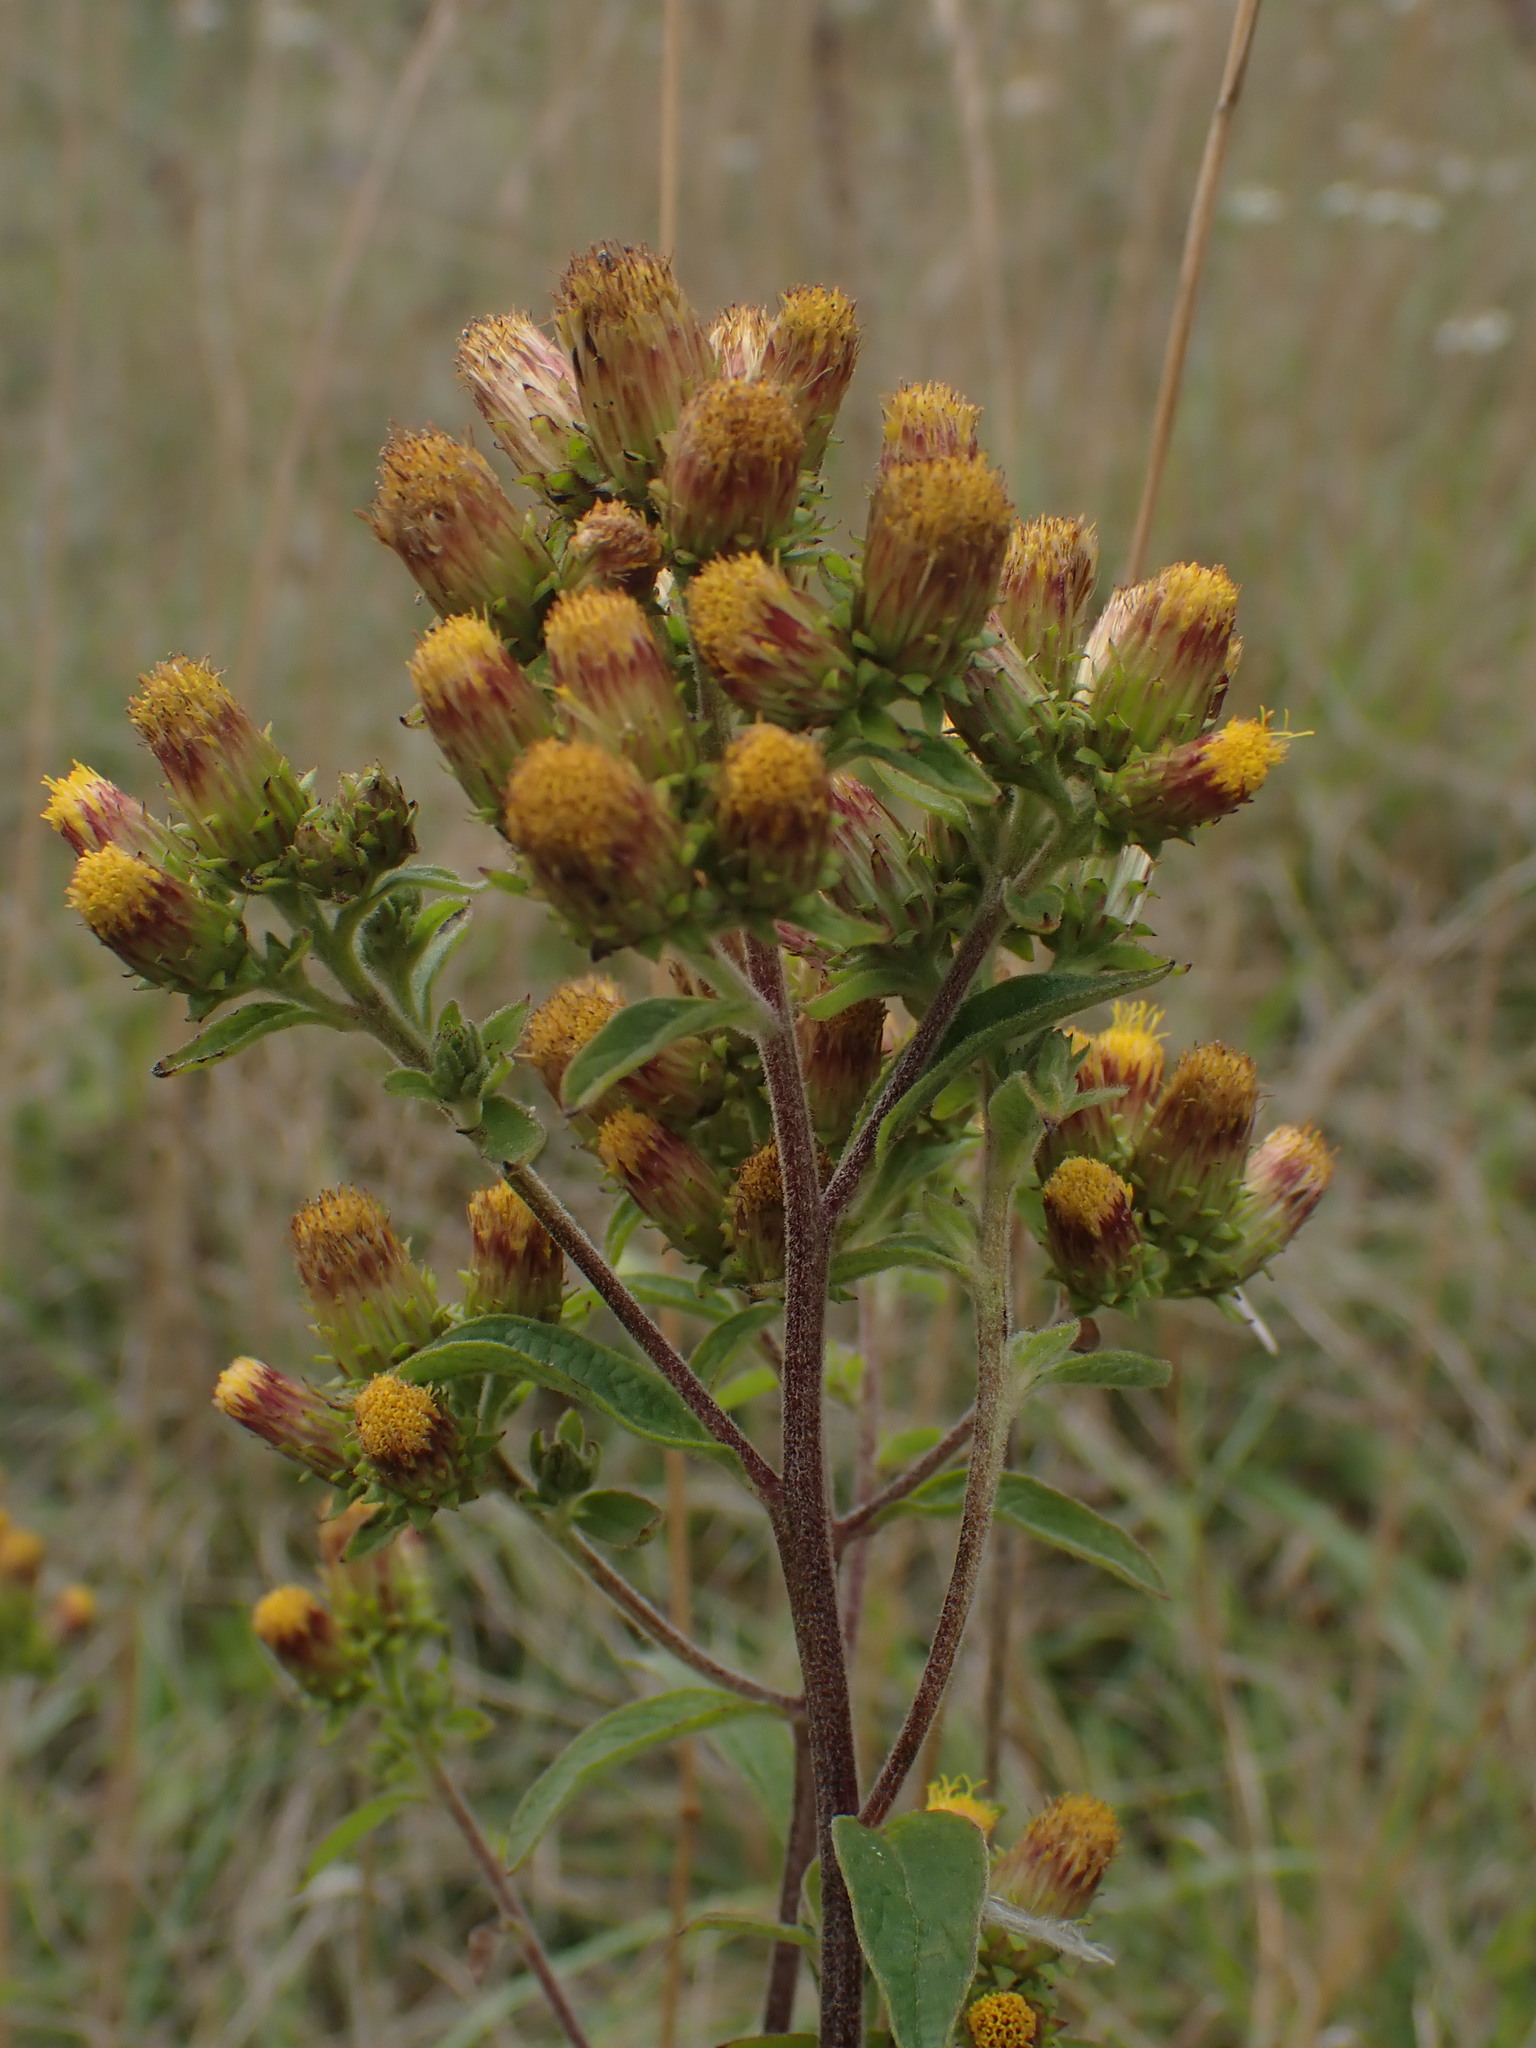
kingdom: Plantae
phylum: Tracheophyta
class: Magnoliopsida
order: Asterales
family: Asteraceae
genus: Pentanema
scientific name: Pentanema squarrosum
